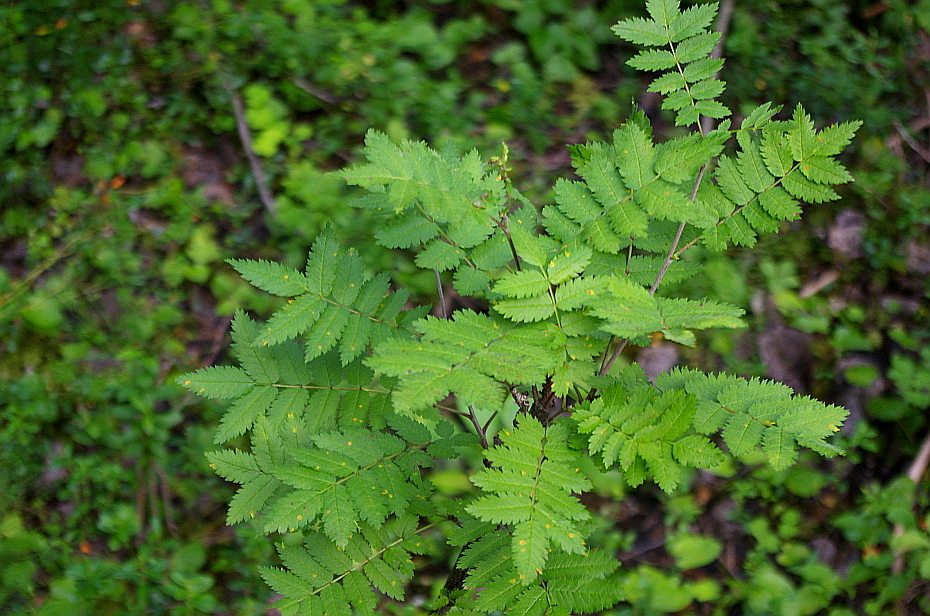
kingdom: Plantae
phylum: Tracheophyta
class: Magnoliopsida
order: Rosales
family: Rosaceae
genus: Sorbus
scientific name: Sorbus aucuparia
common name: Rowan
